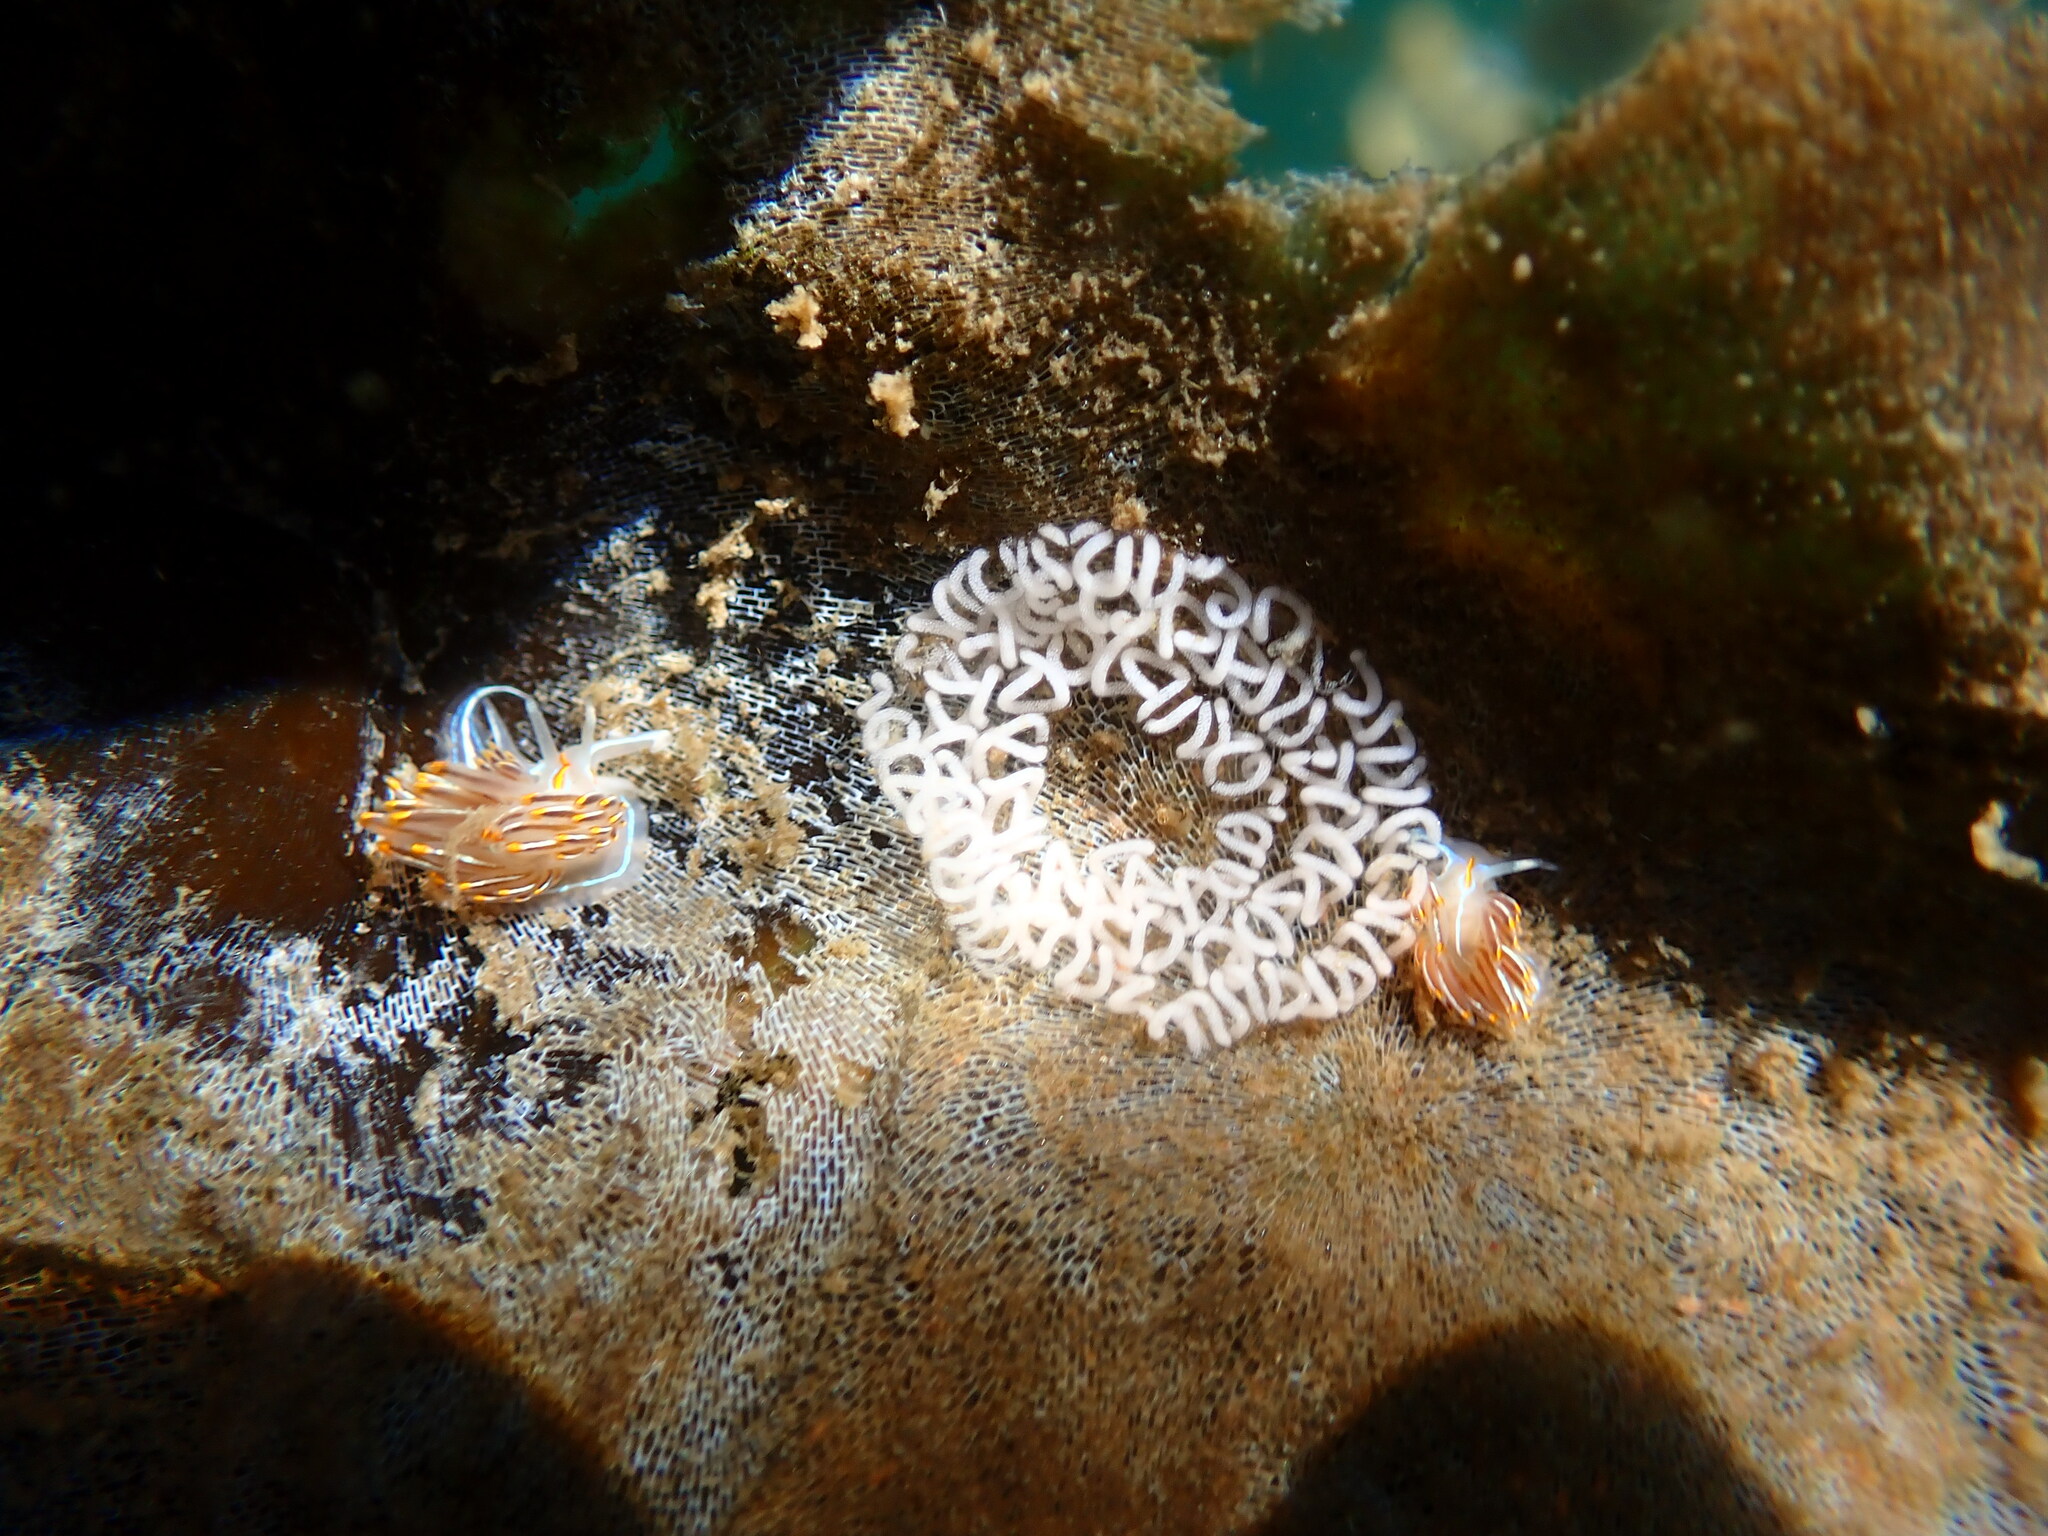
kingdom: Animalia
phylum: Mollusca
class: Gastropoda
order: Nudibranchia
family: Myrrhinidae
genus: Hermissenda
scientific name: Hermissenda crassicornis
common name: Hermissenda
